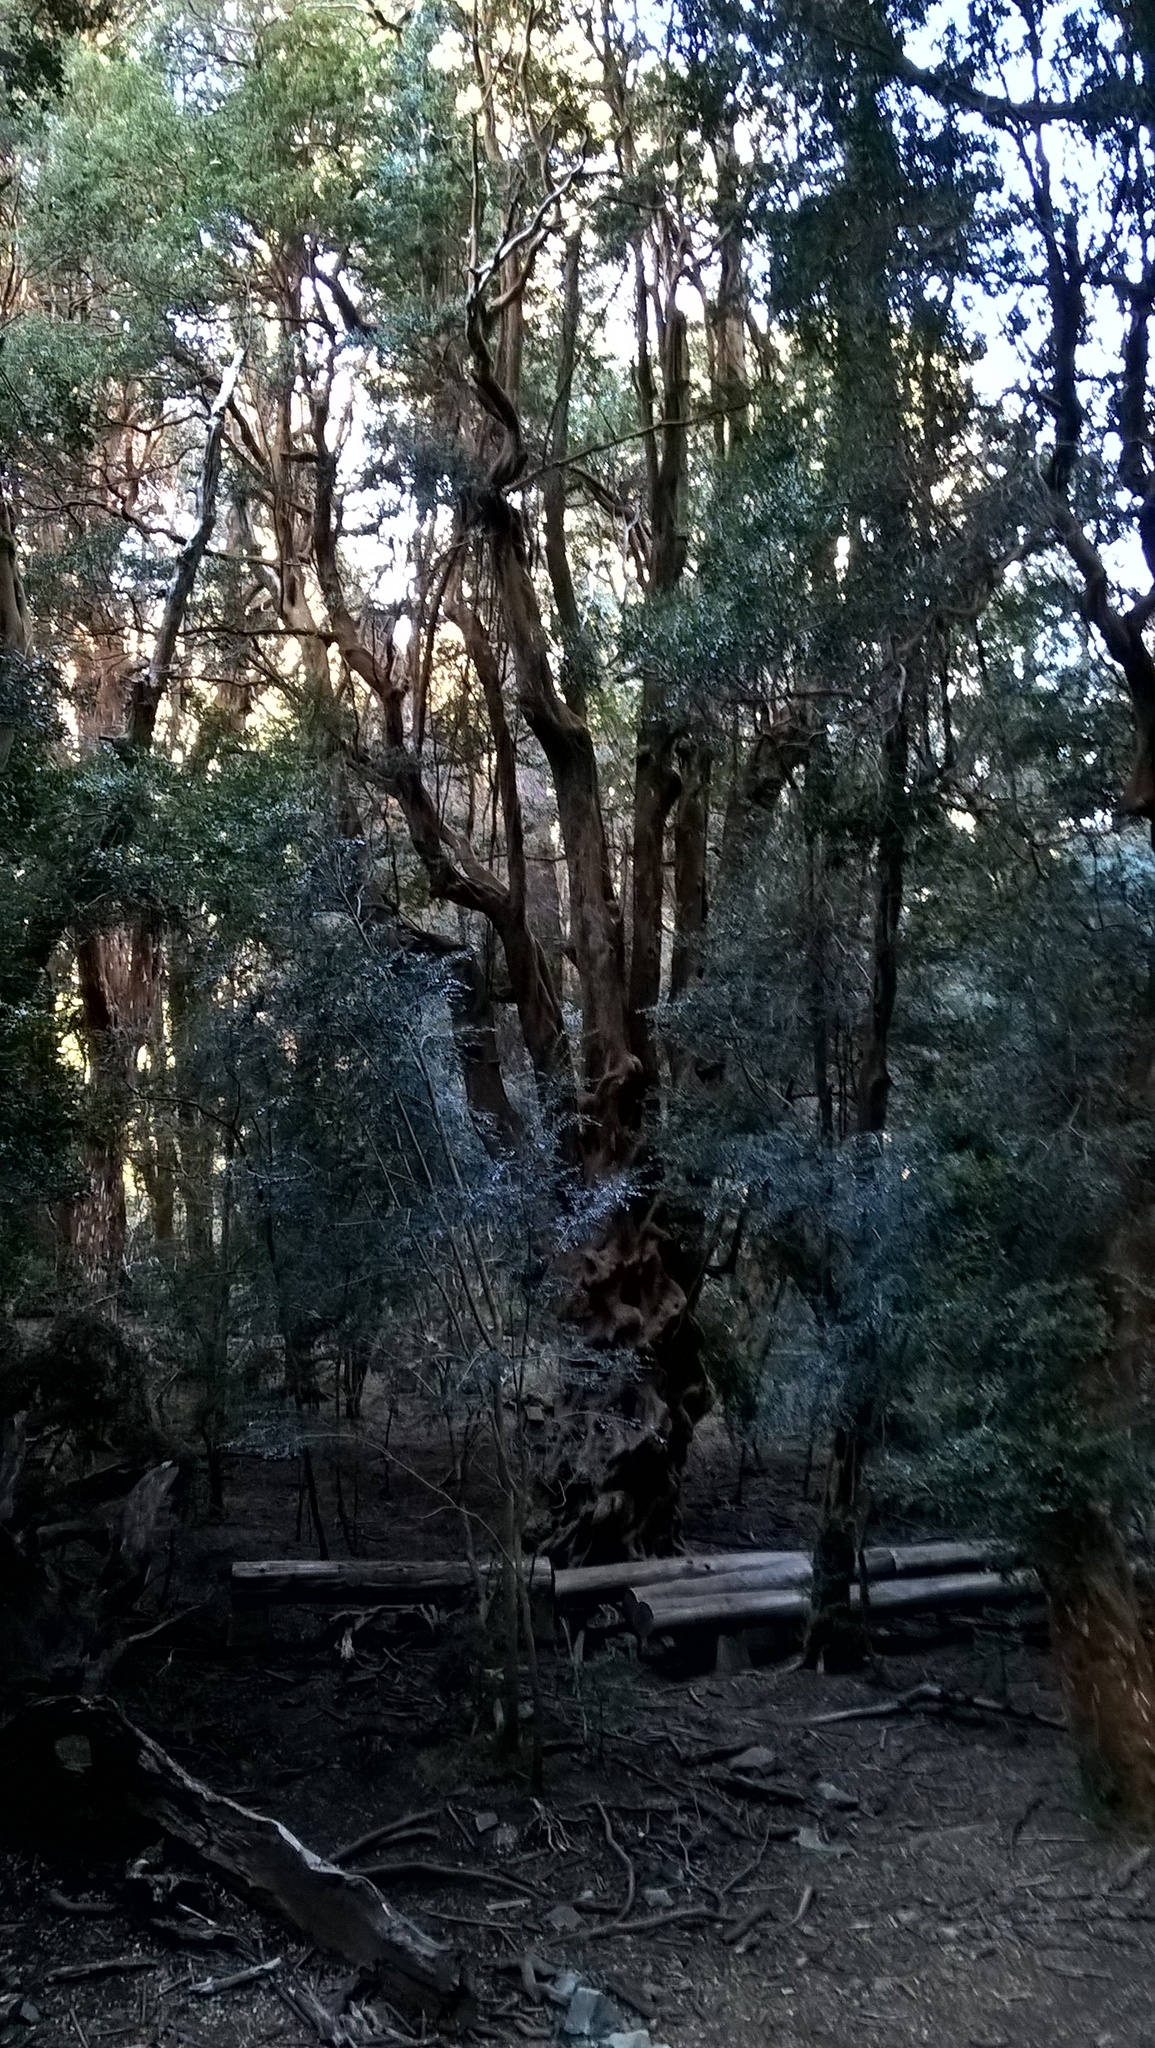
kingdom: Plantae
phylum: Tracheophyta
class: Magnoliopsida
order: Myrtales
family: Myrtaceae
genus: Luma
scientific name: Luma apiculata
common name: Chilean myrtle
